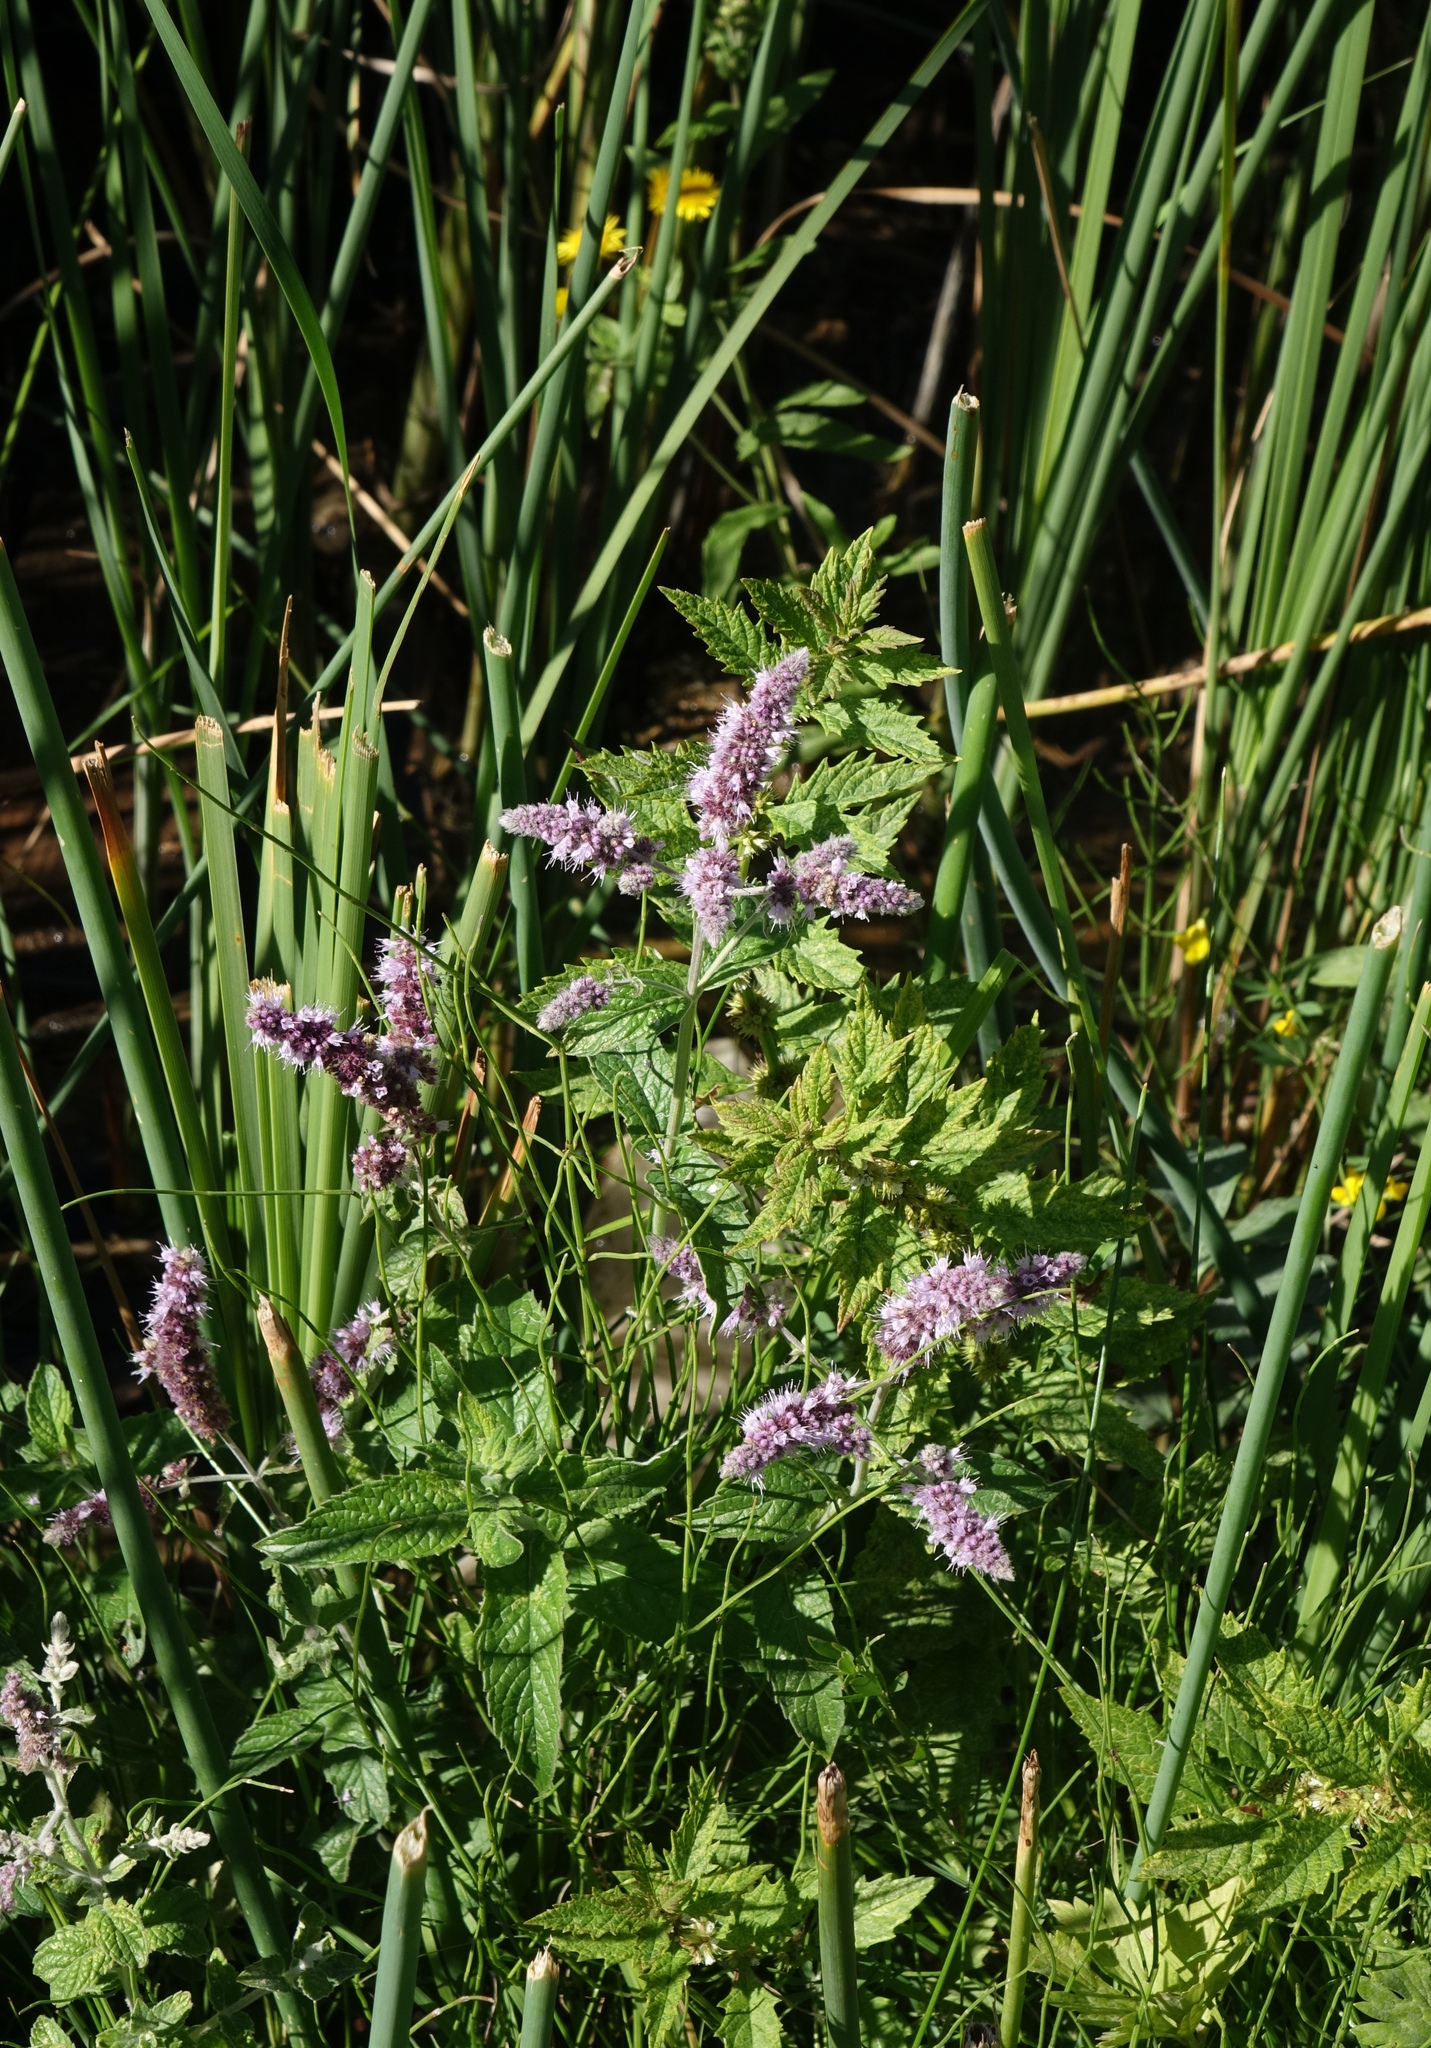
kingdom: Plantae
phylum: Tracheophyta
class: Magnoliopsida
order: Lamiales
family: Lamiaceae
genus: Mentha
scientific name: Mentha longifolia
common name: Horse mint
